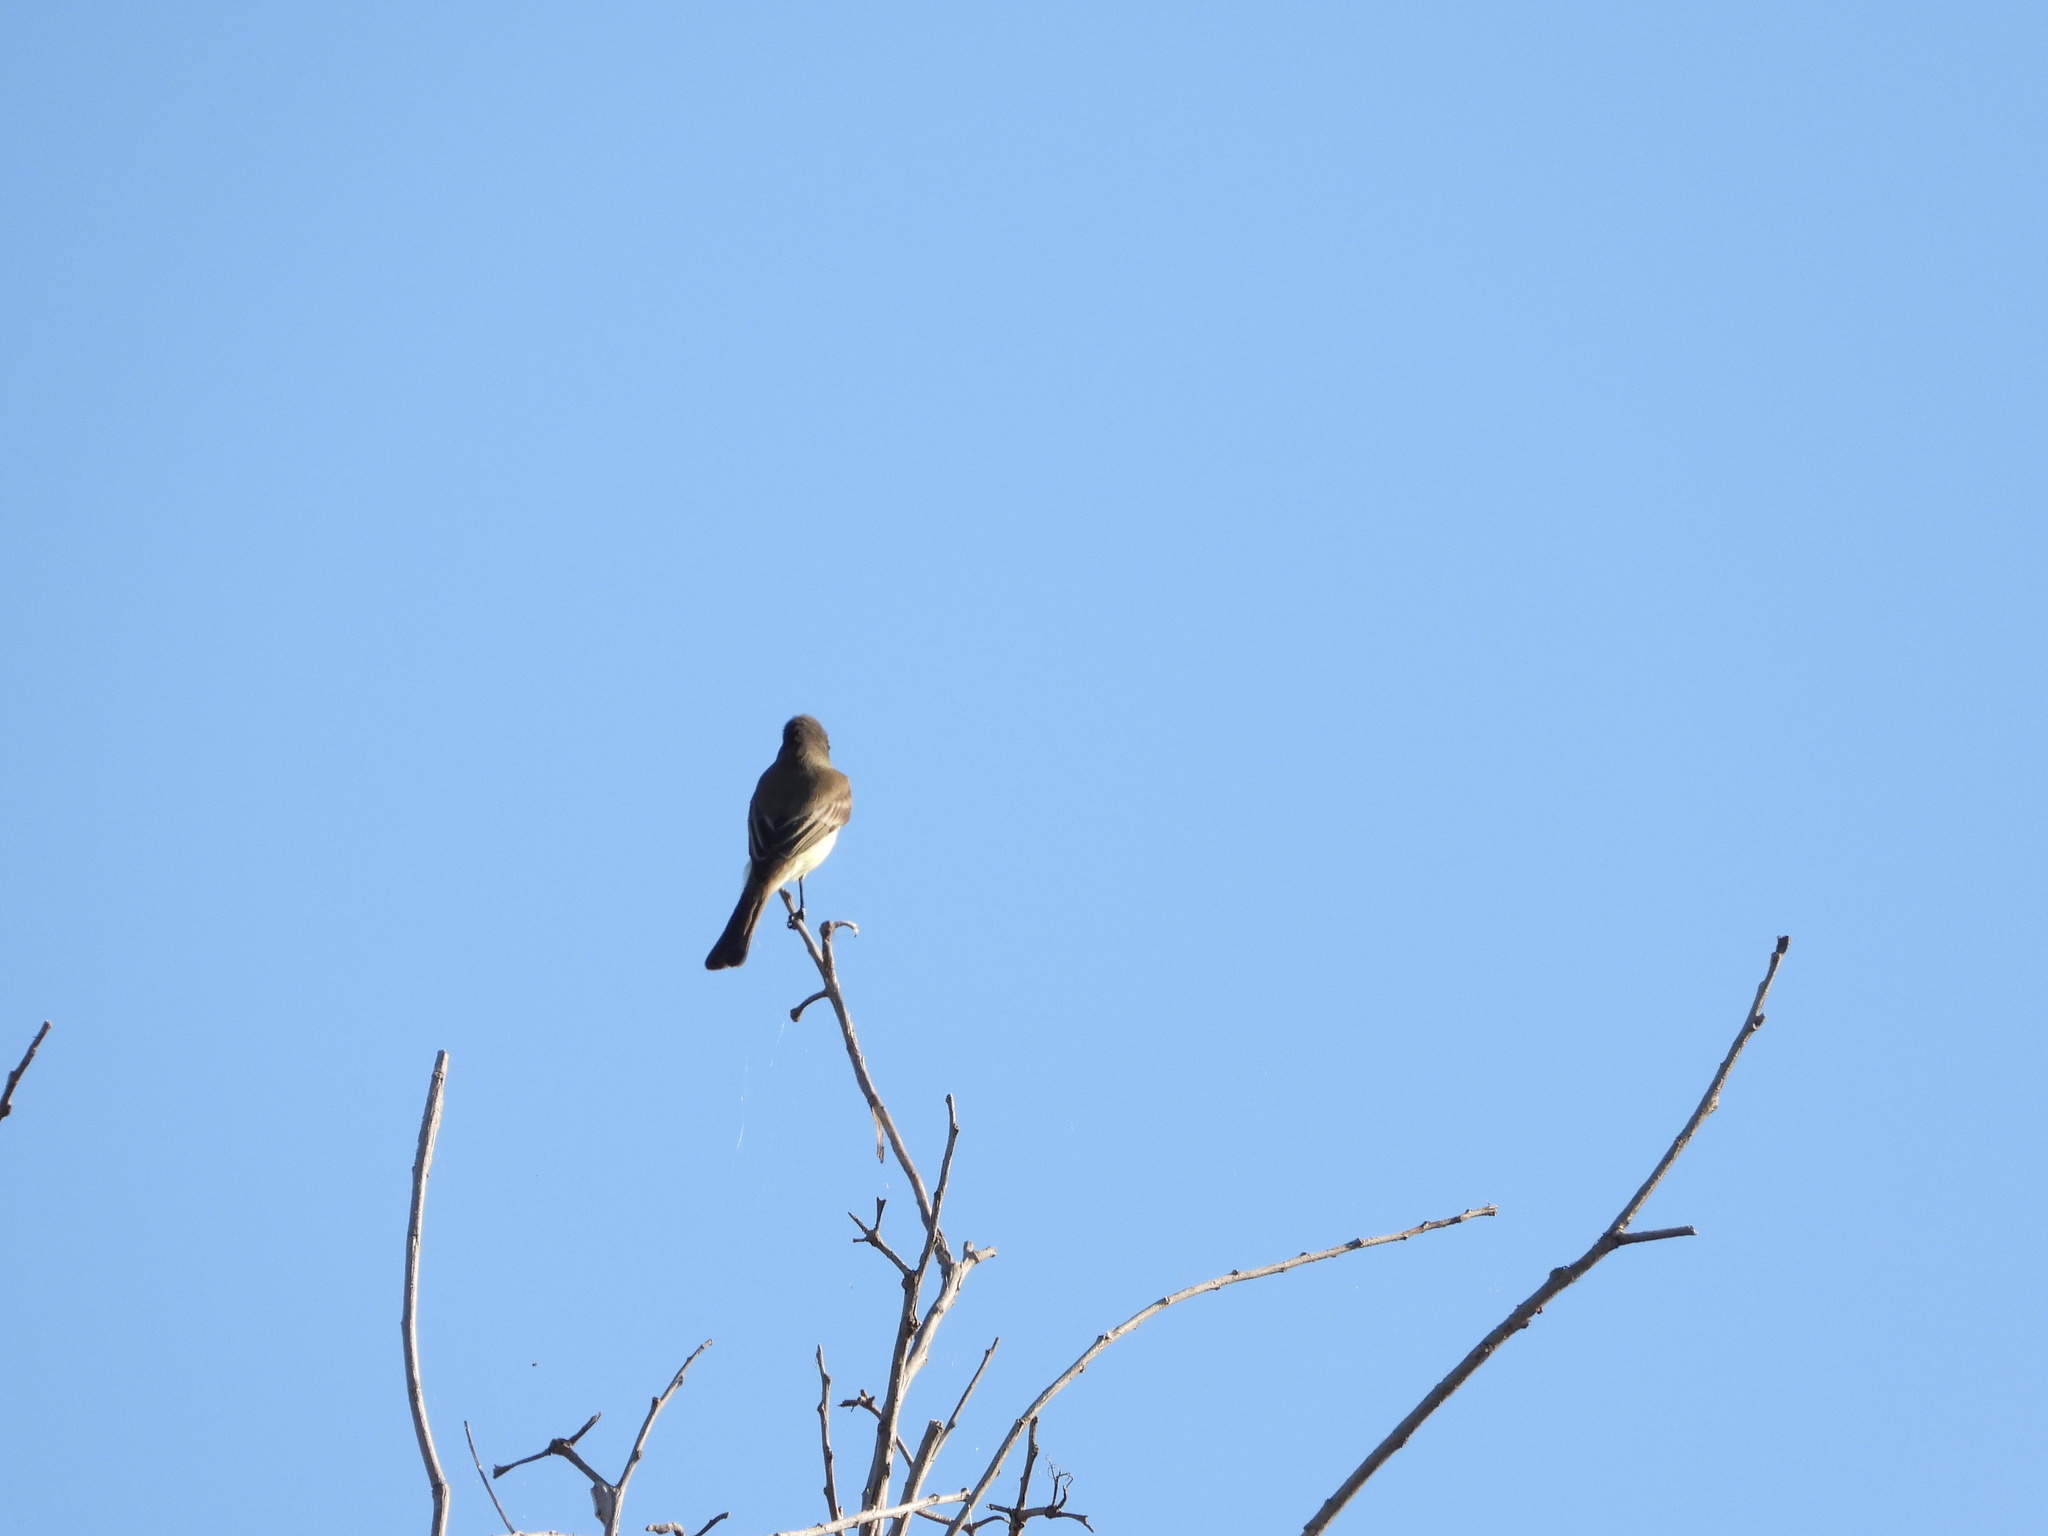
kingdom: Animalia
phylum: Chordata
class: Aves
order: Passeriformes
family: Tyrannidae
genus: Sayornis
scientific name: Sayornis phoebe
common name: Eastern phoebe
